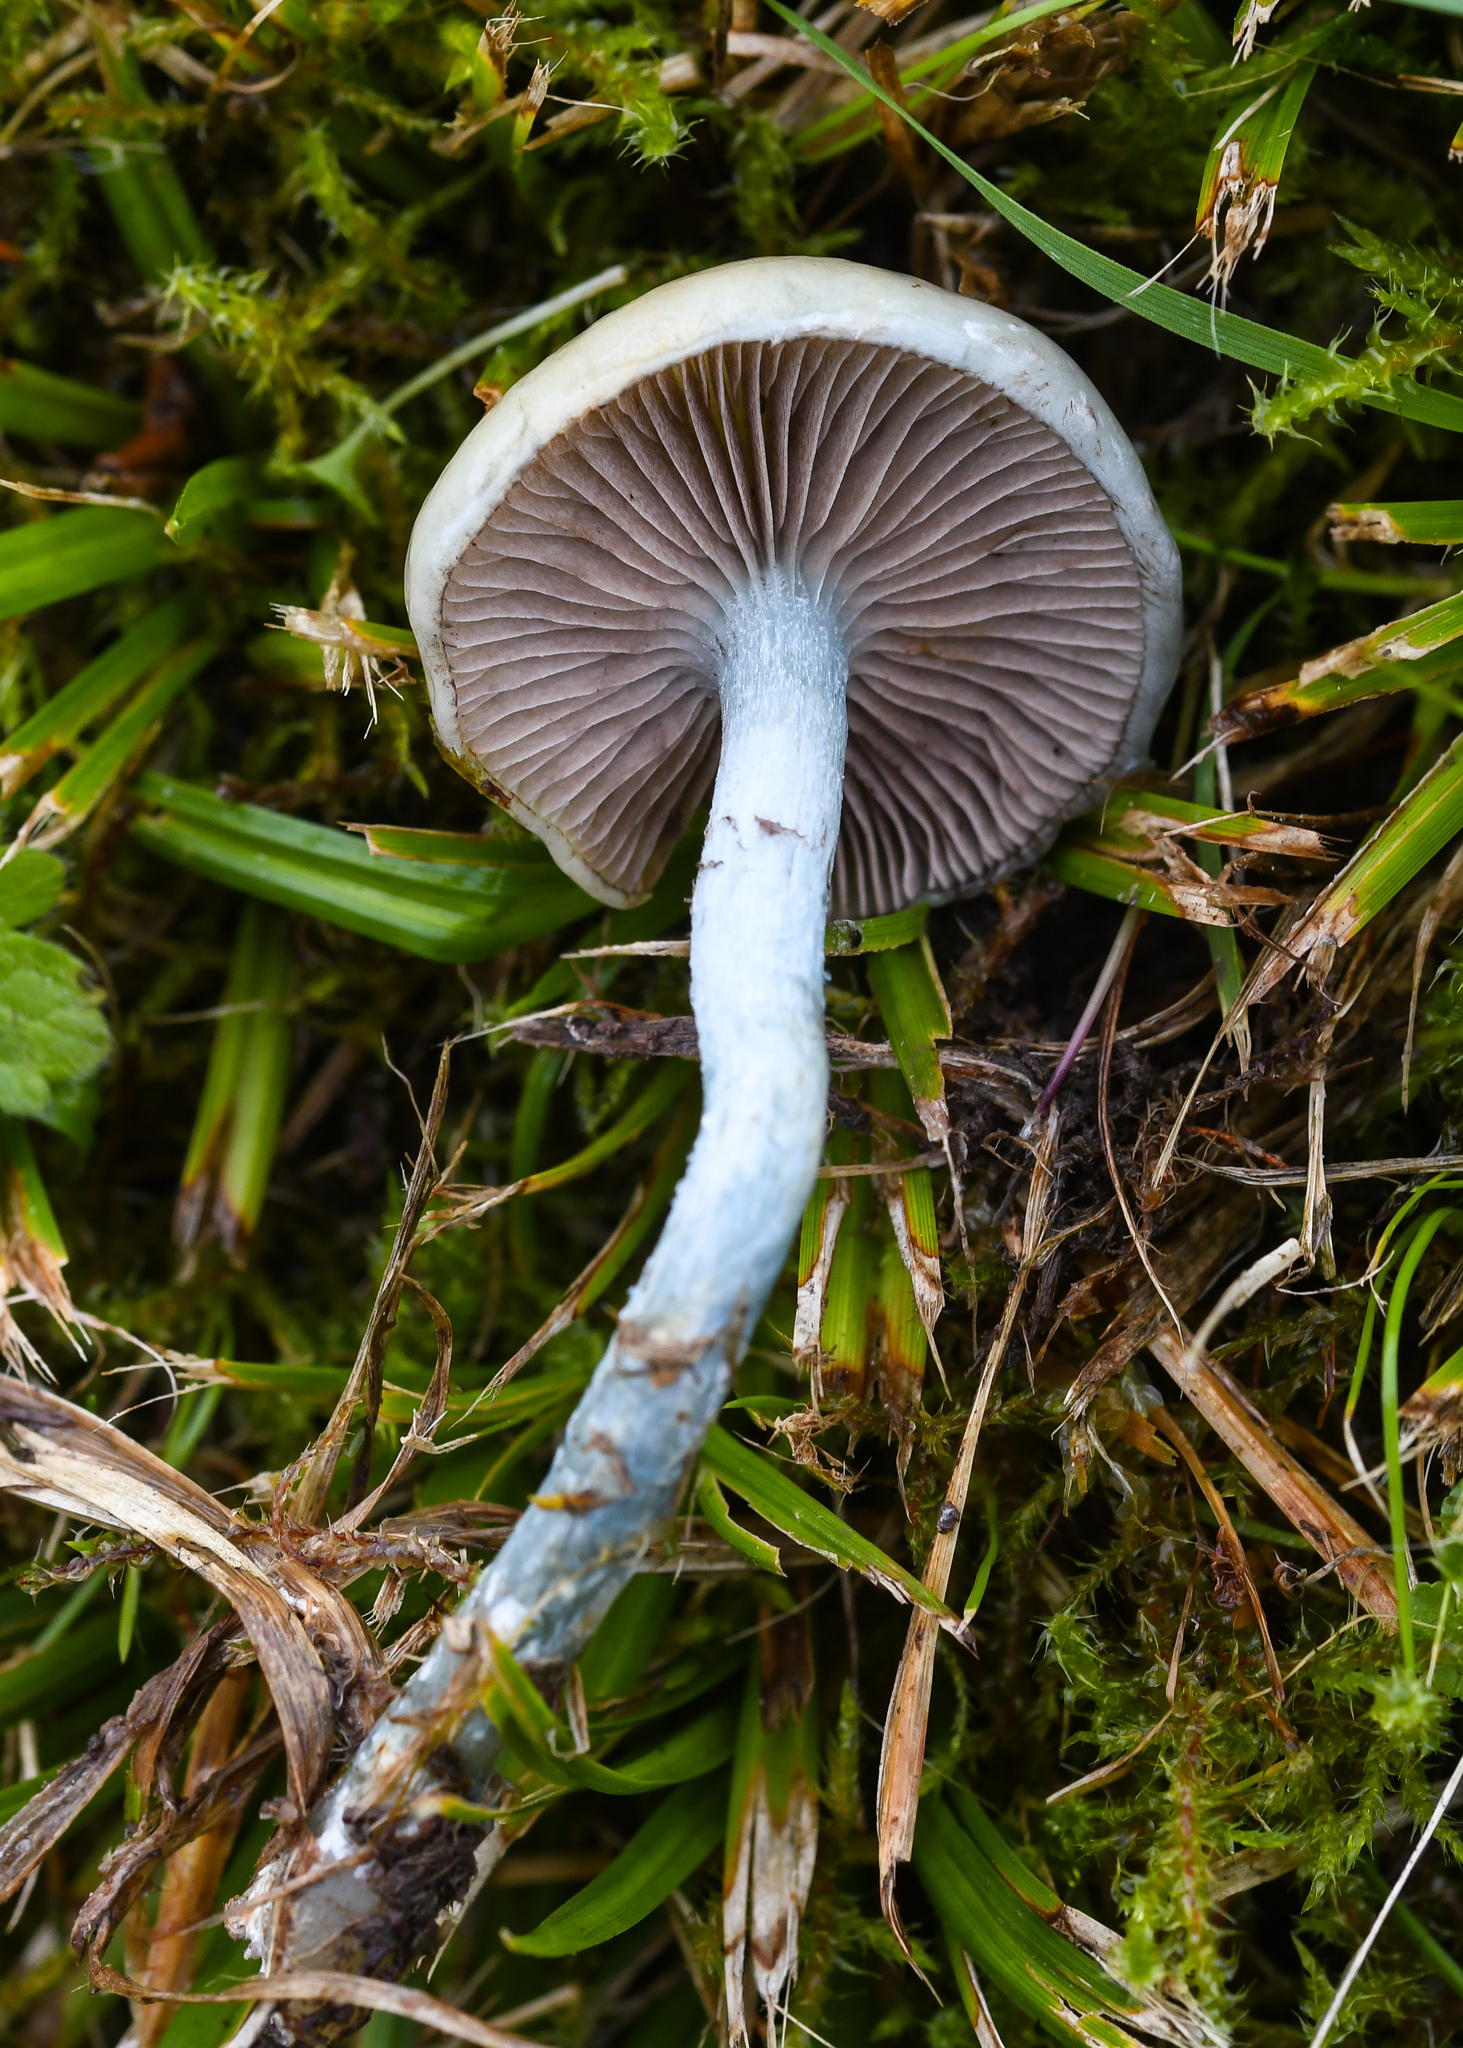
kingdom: Fungi
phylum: Basidiomycota
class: Agaricomycetes
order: Agaricales
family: Strophariaceae
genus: Stropharia
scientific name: Stropharia caerulea
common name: Blue roundhead
